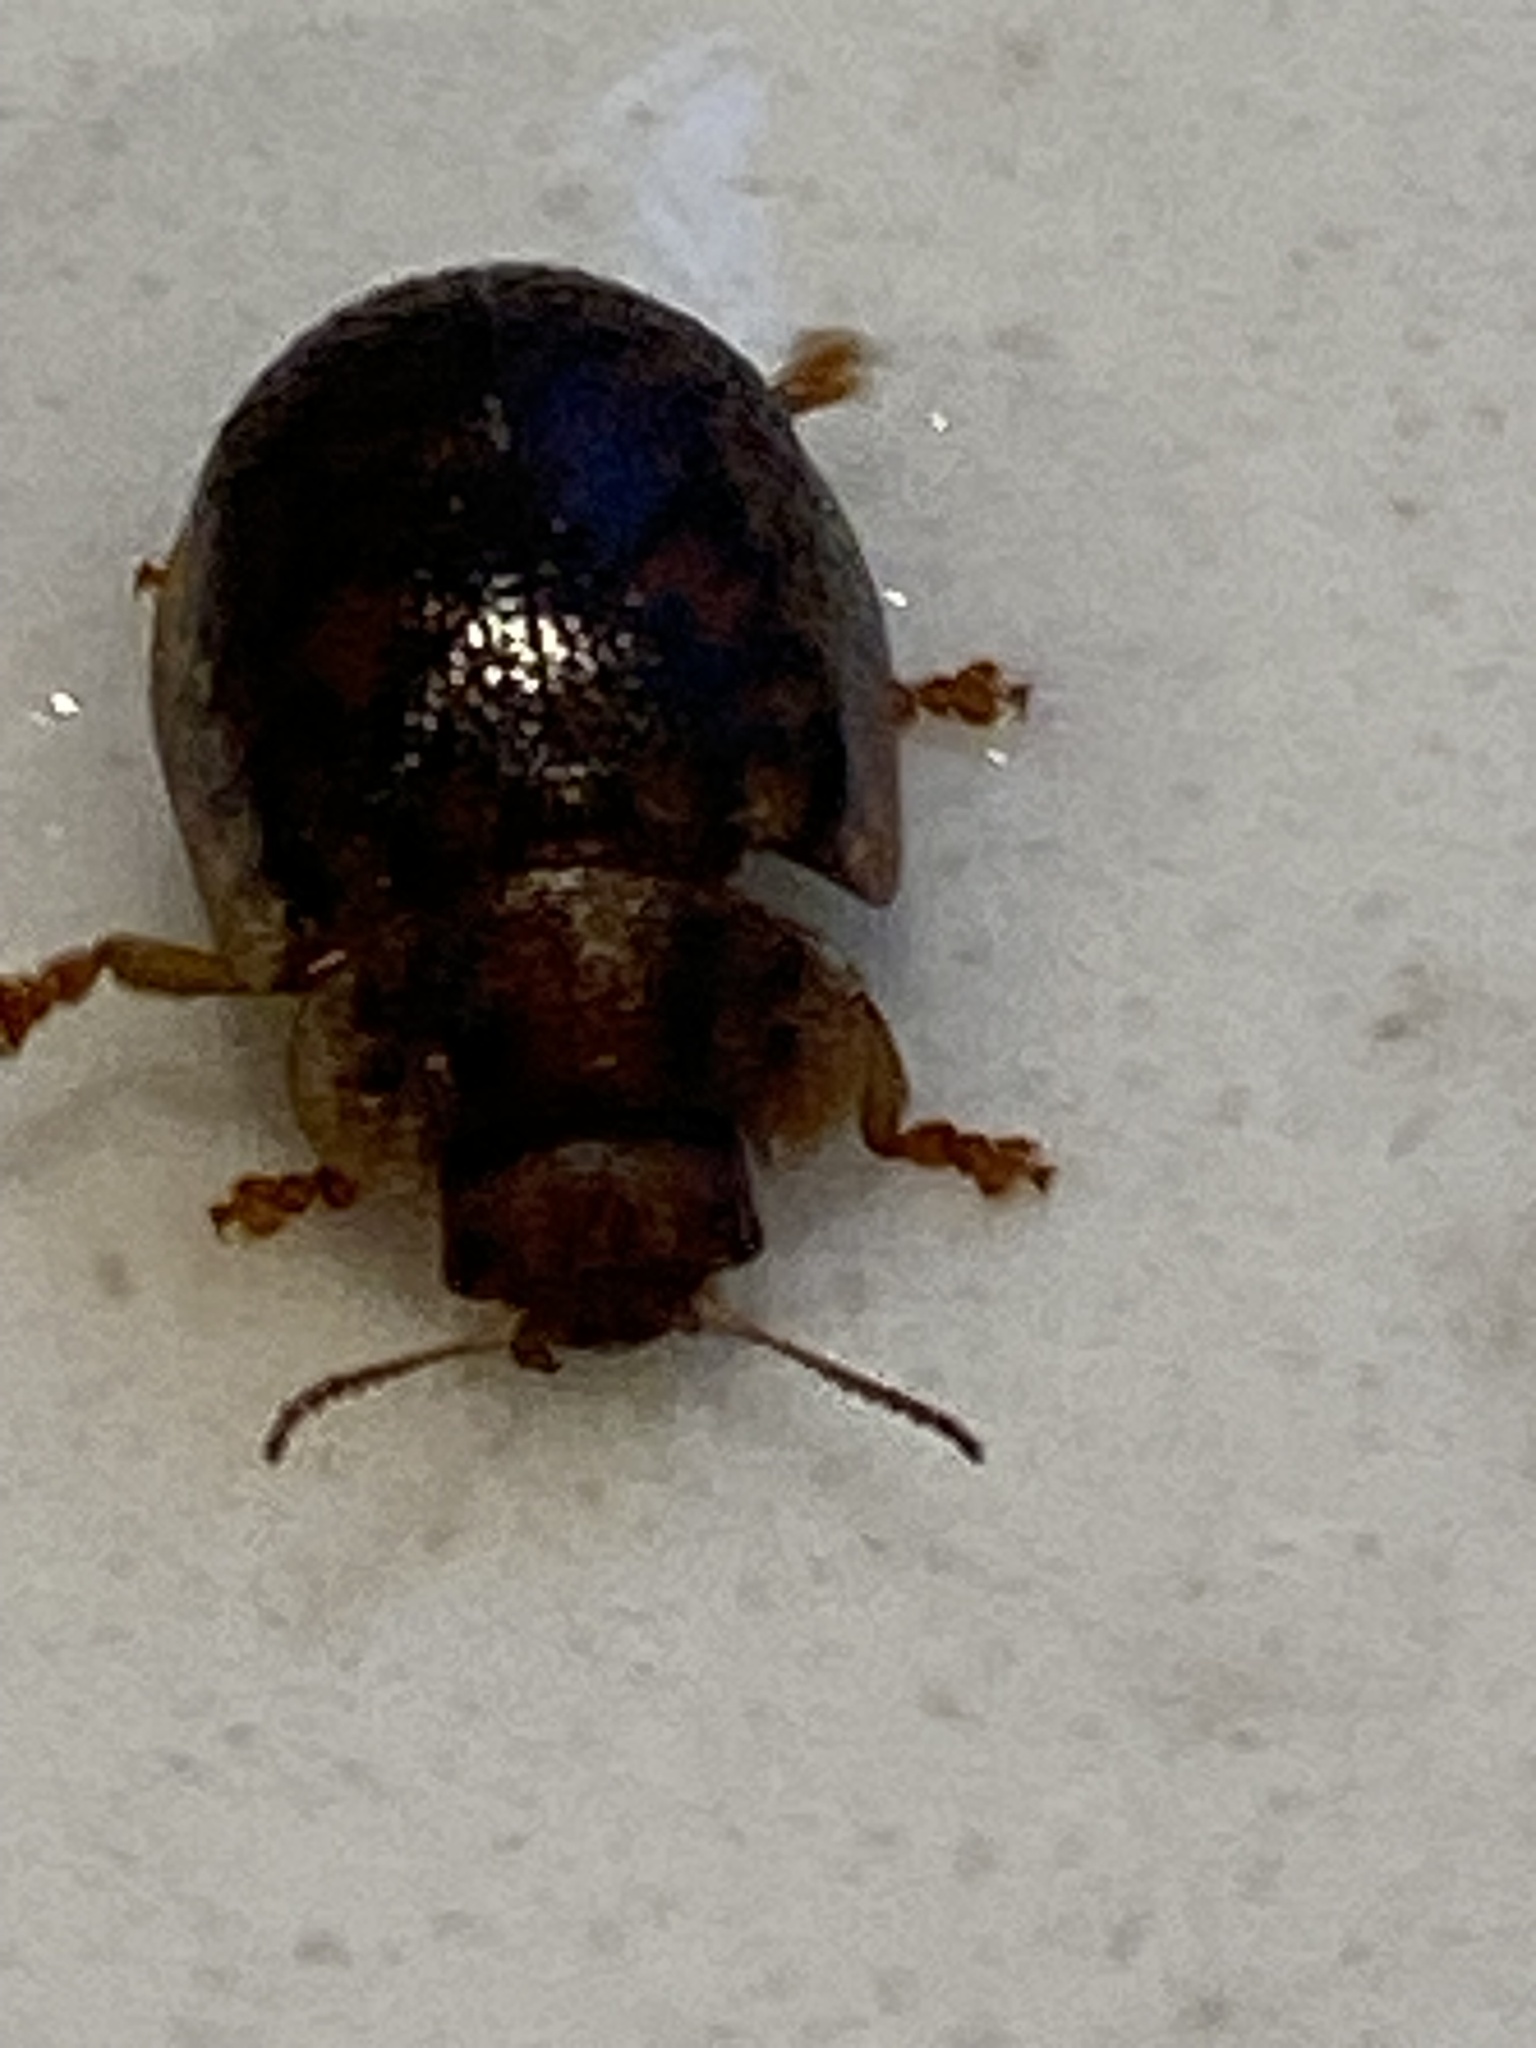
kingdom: Animalia
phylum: Arthropoda
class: Insecta
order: Coleoptera
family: Chrysomelidae
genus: Trachymela
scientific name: Trachymela sloanei
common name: Australian tortoise beetle
